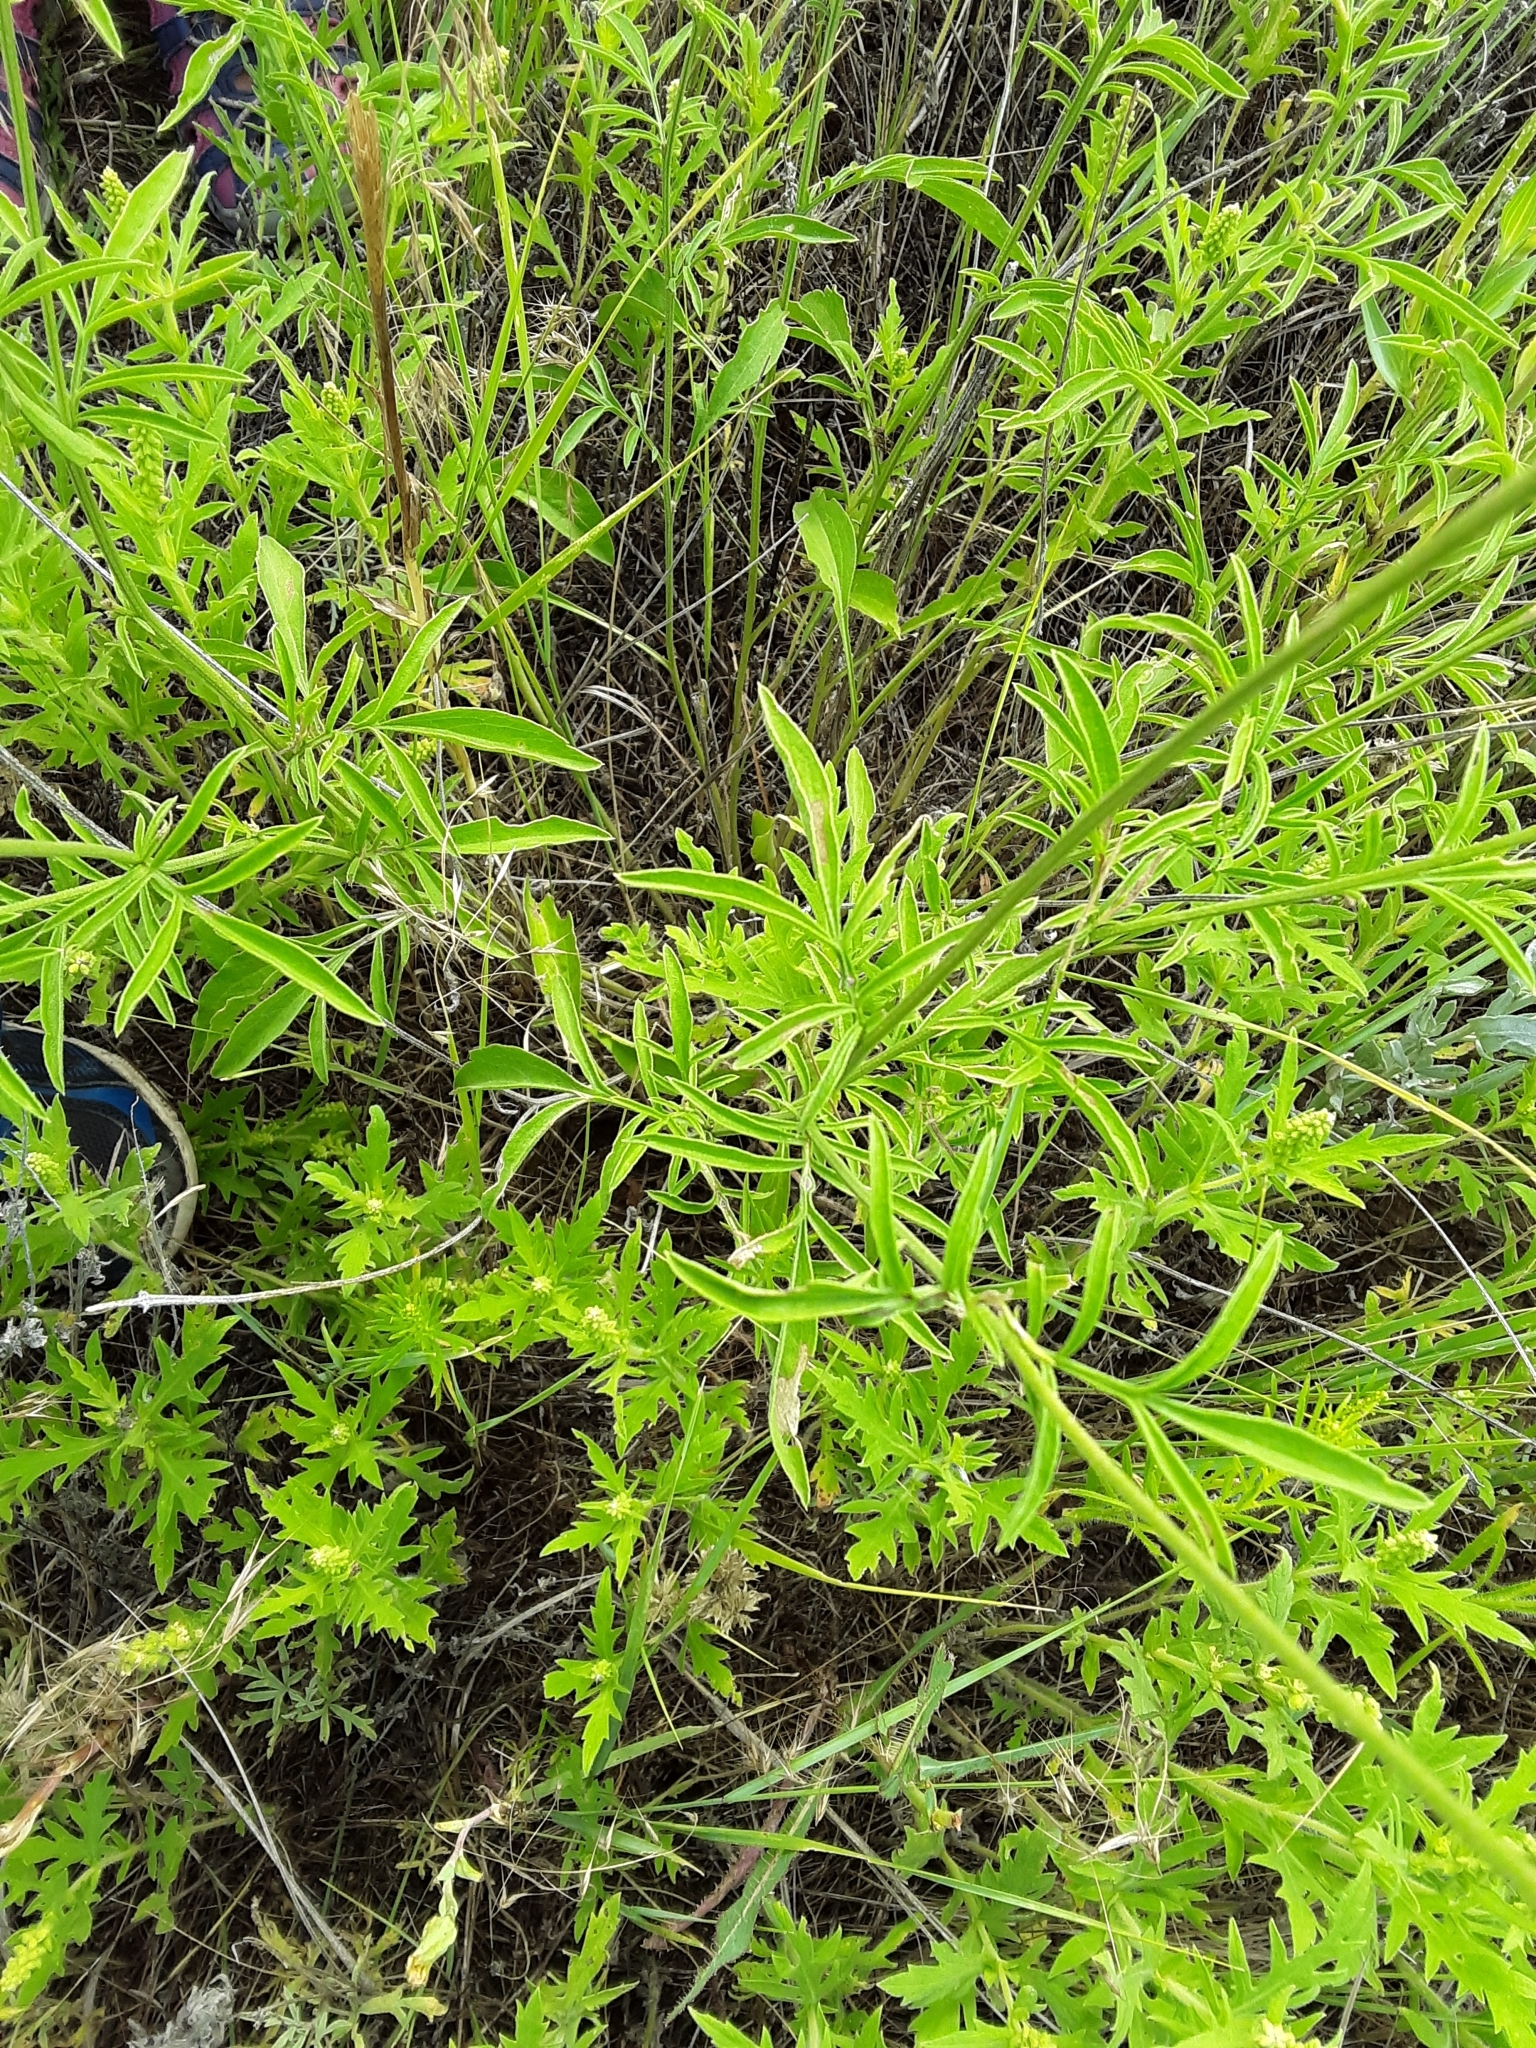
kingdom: Plantae
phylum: Tracheophyta
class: Magnoliopsida
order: Asterales
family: Asteraceae
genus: Ratibida
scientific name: Ratibida columnifera
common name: Prairie coneflower
